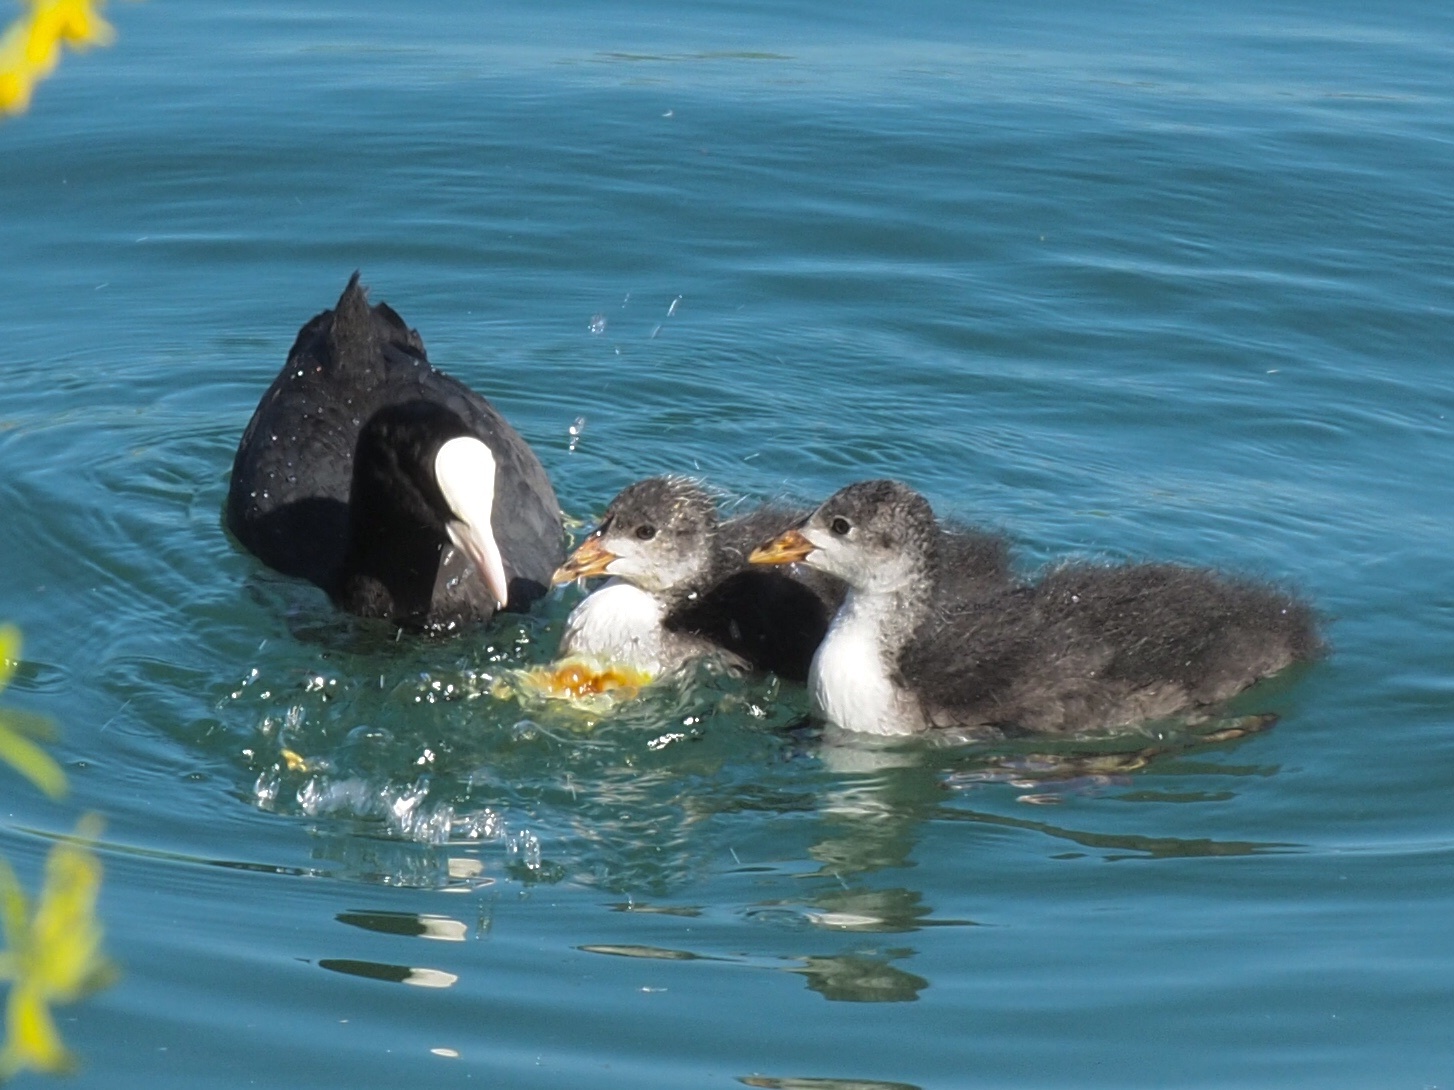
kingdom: Animalia
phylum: Chordata
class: Aves
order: Gruiformes
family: Rallidae
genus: Fulica
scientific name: Fulica atra
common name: Eurasian coot
